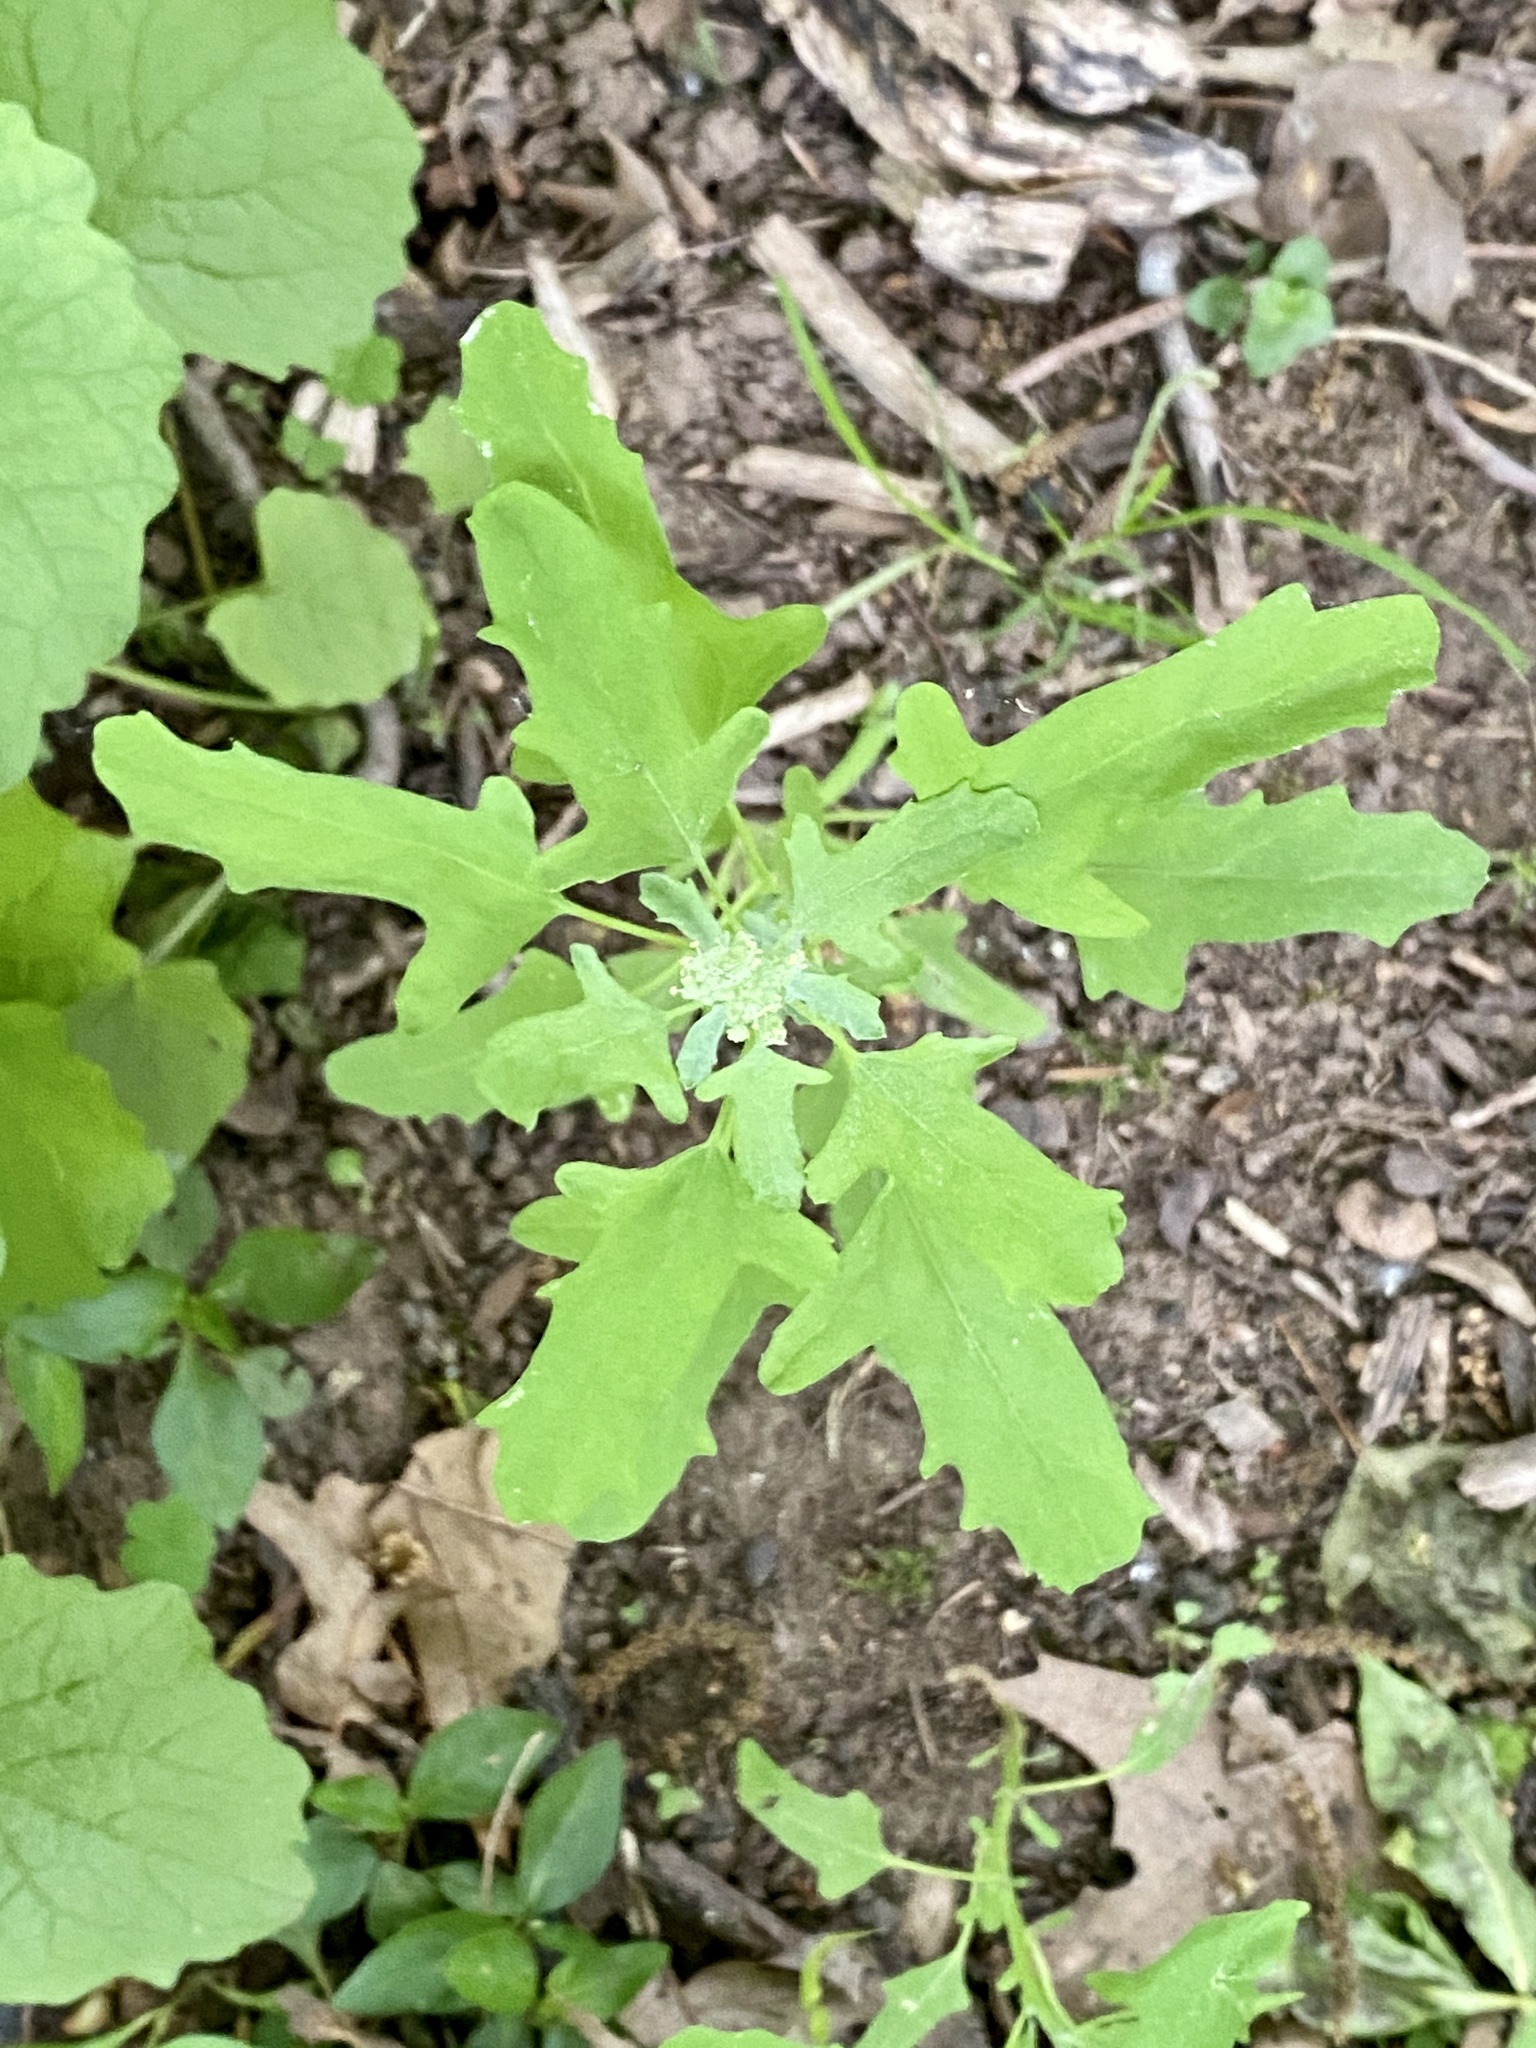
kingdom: Plantae
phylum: Tracheophyta
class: Magnoliopsida
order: Caryophyllales
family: Amaranthaceae
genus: Chenopodium
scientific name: Chenopodium album
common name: Fat-hen
